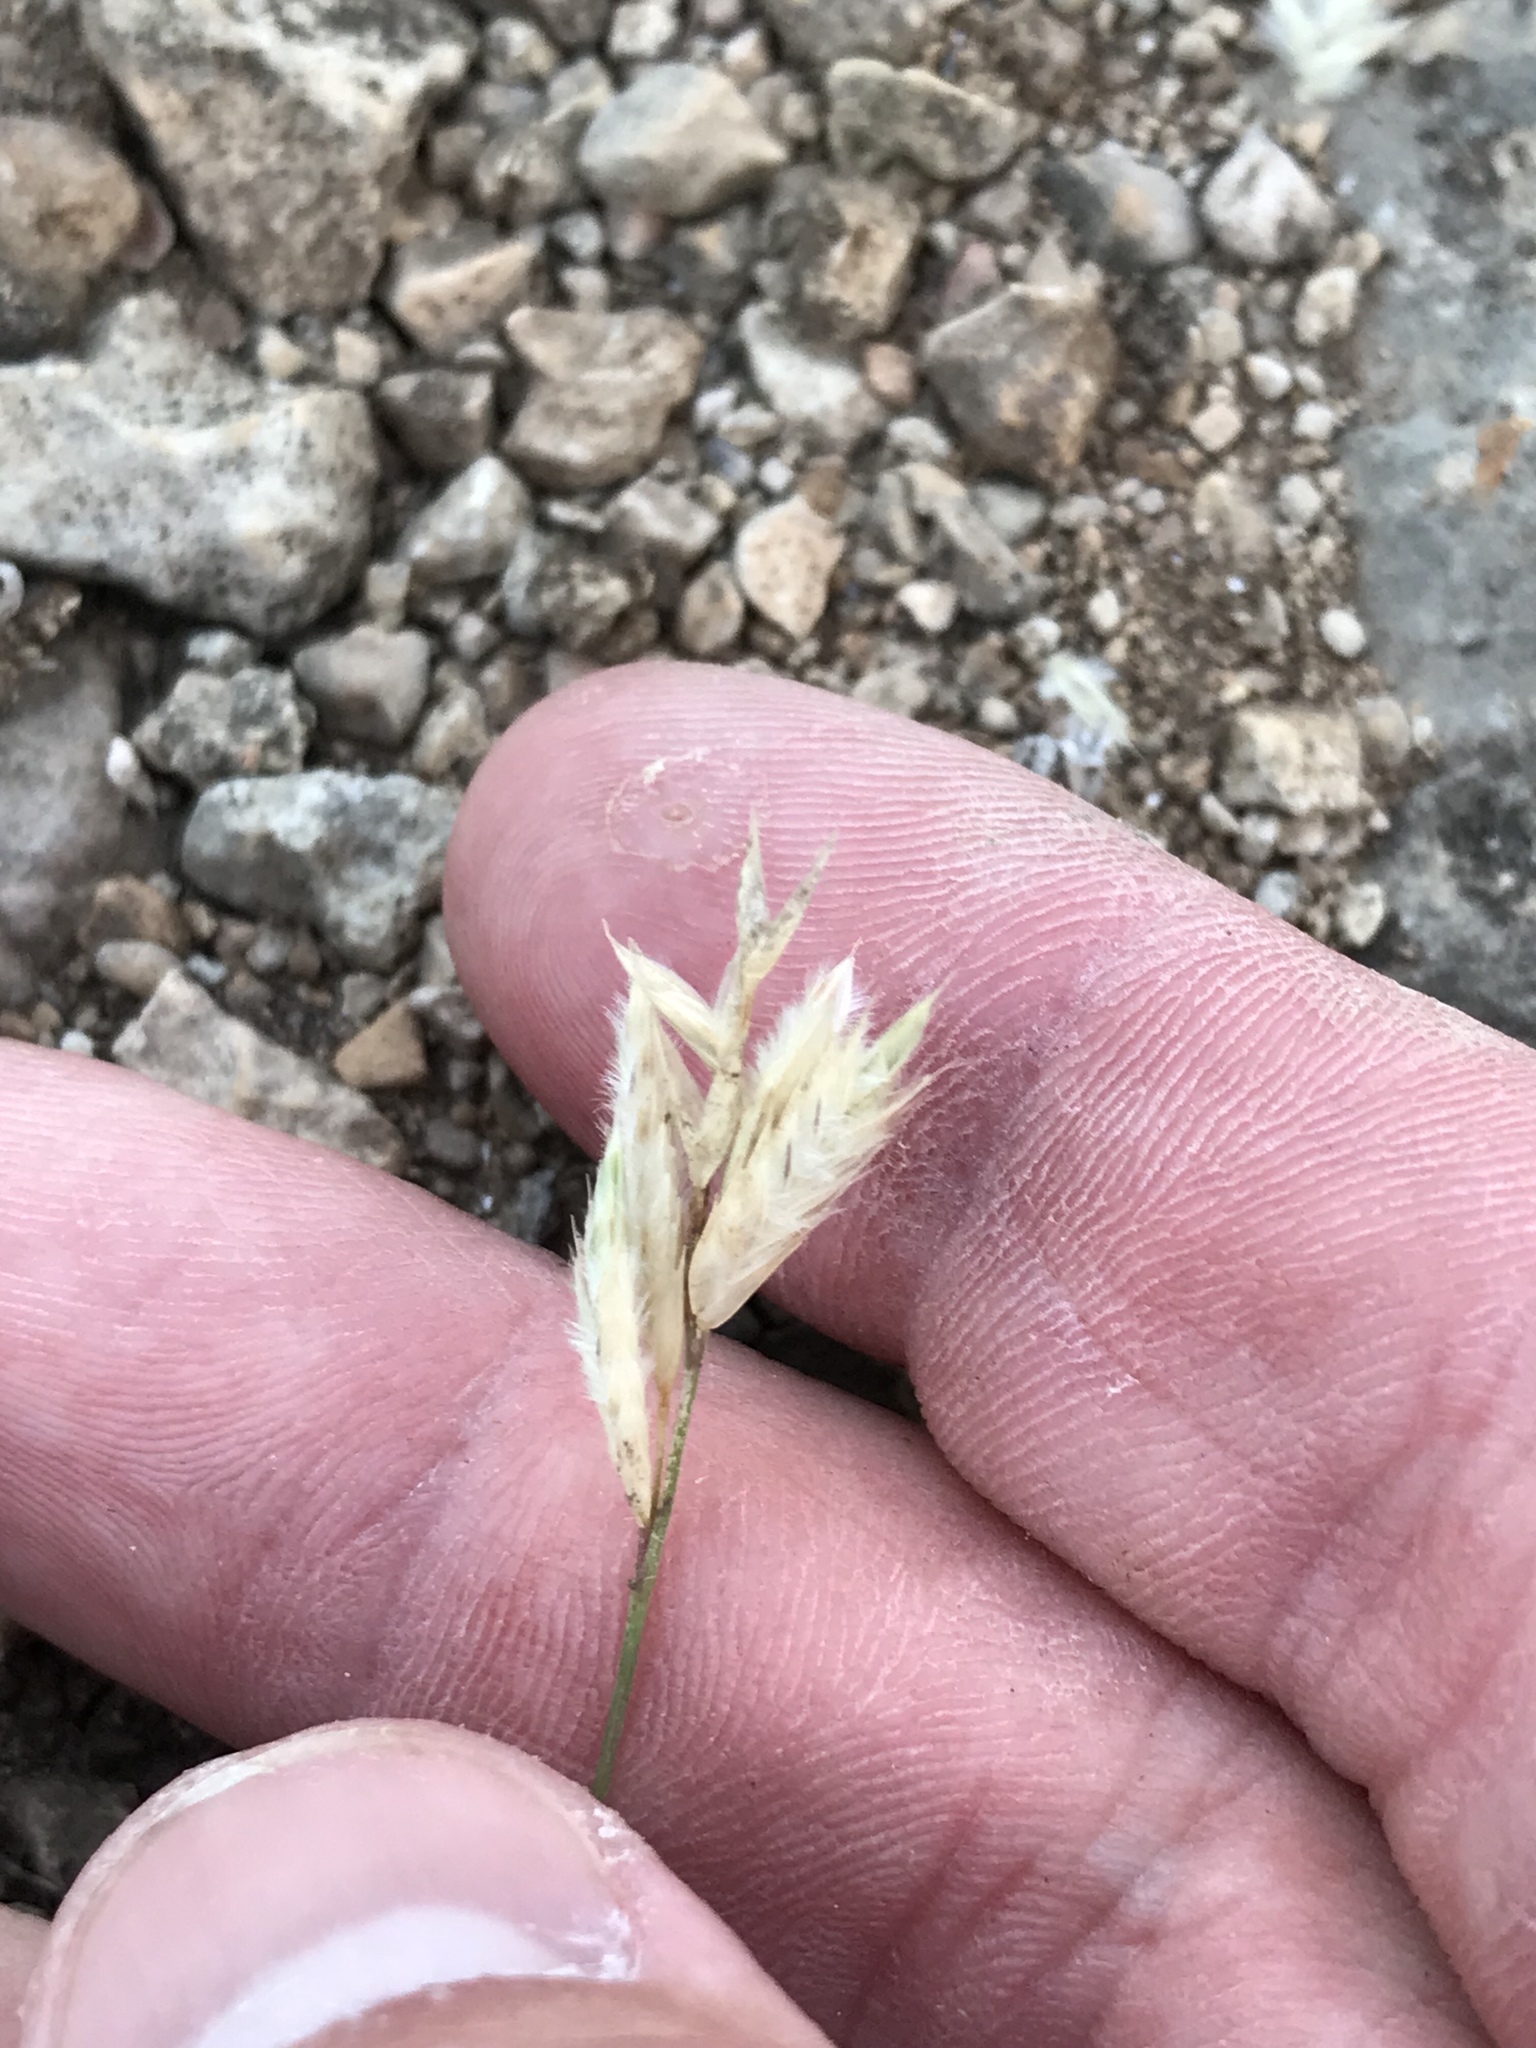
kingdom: Plantae
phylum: Tracheophyta
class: Liliopsida
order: Poales
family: Poaceae
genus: Erioneuron
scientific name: Erioneuron pilosum
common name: Hairy woolly grass
